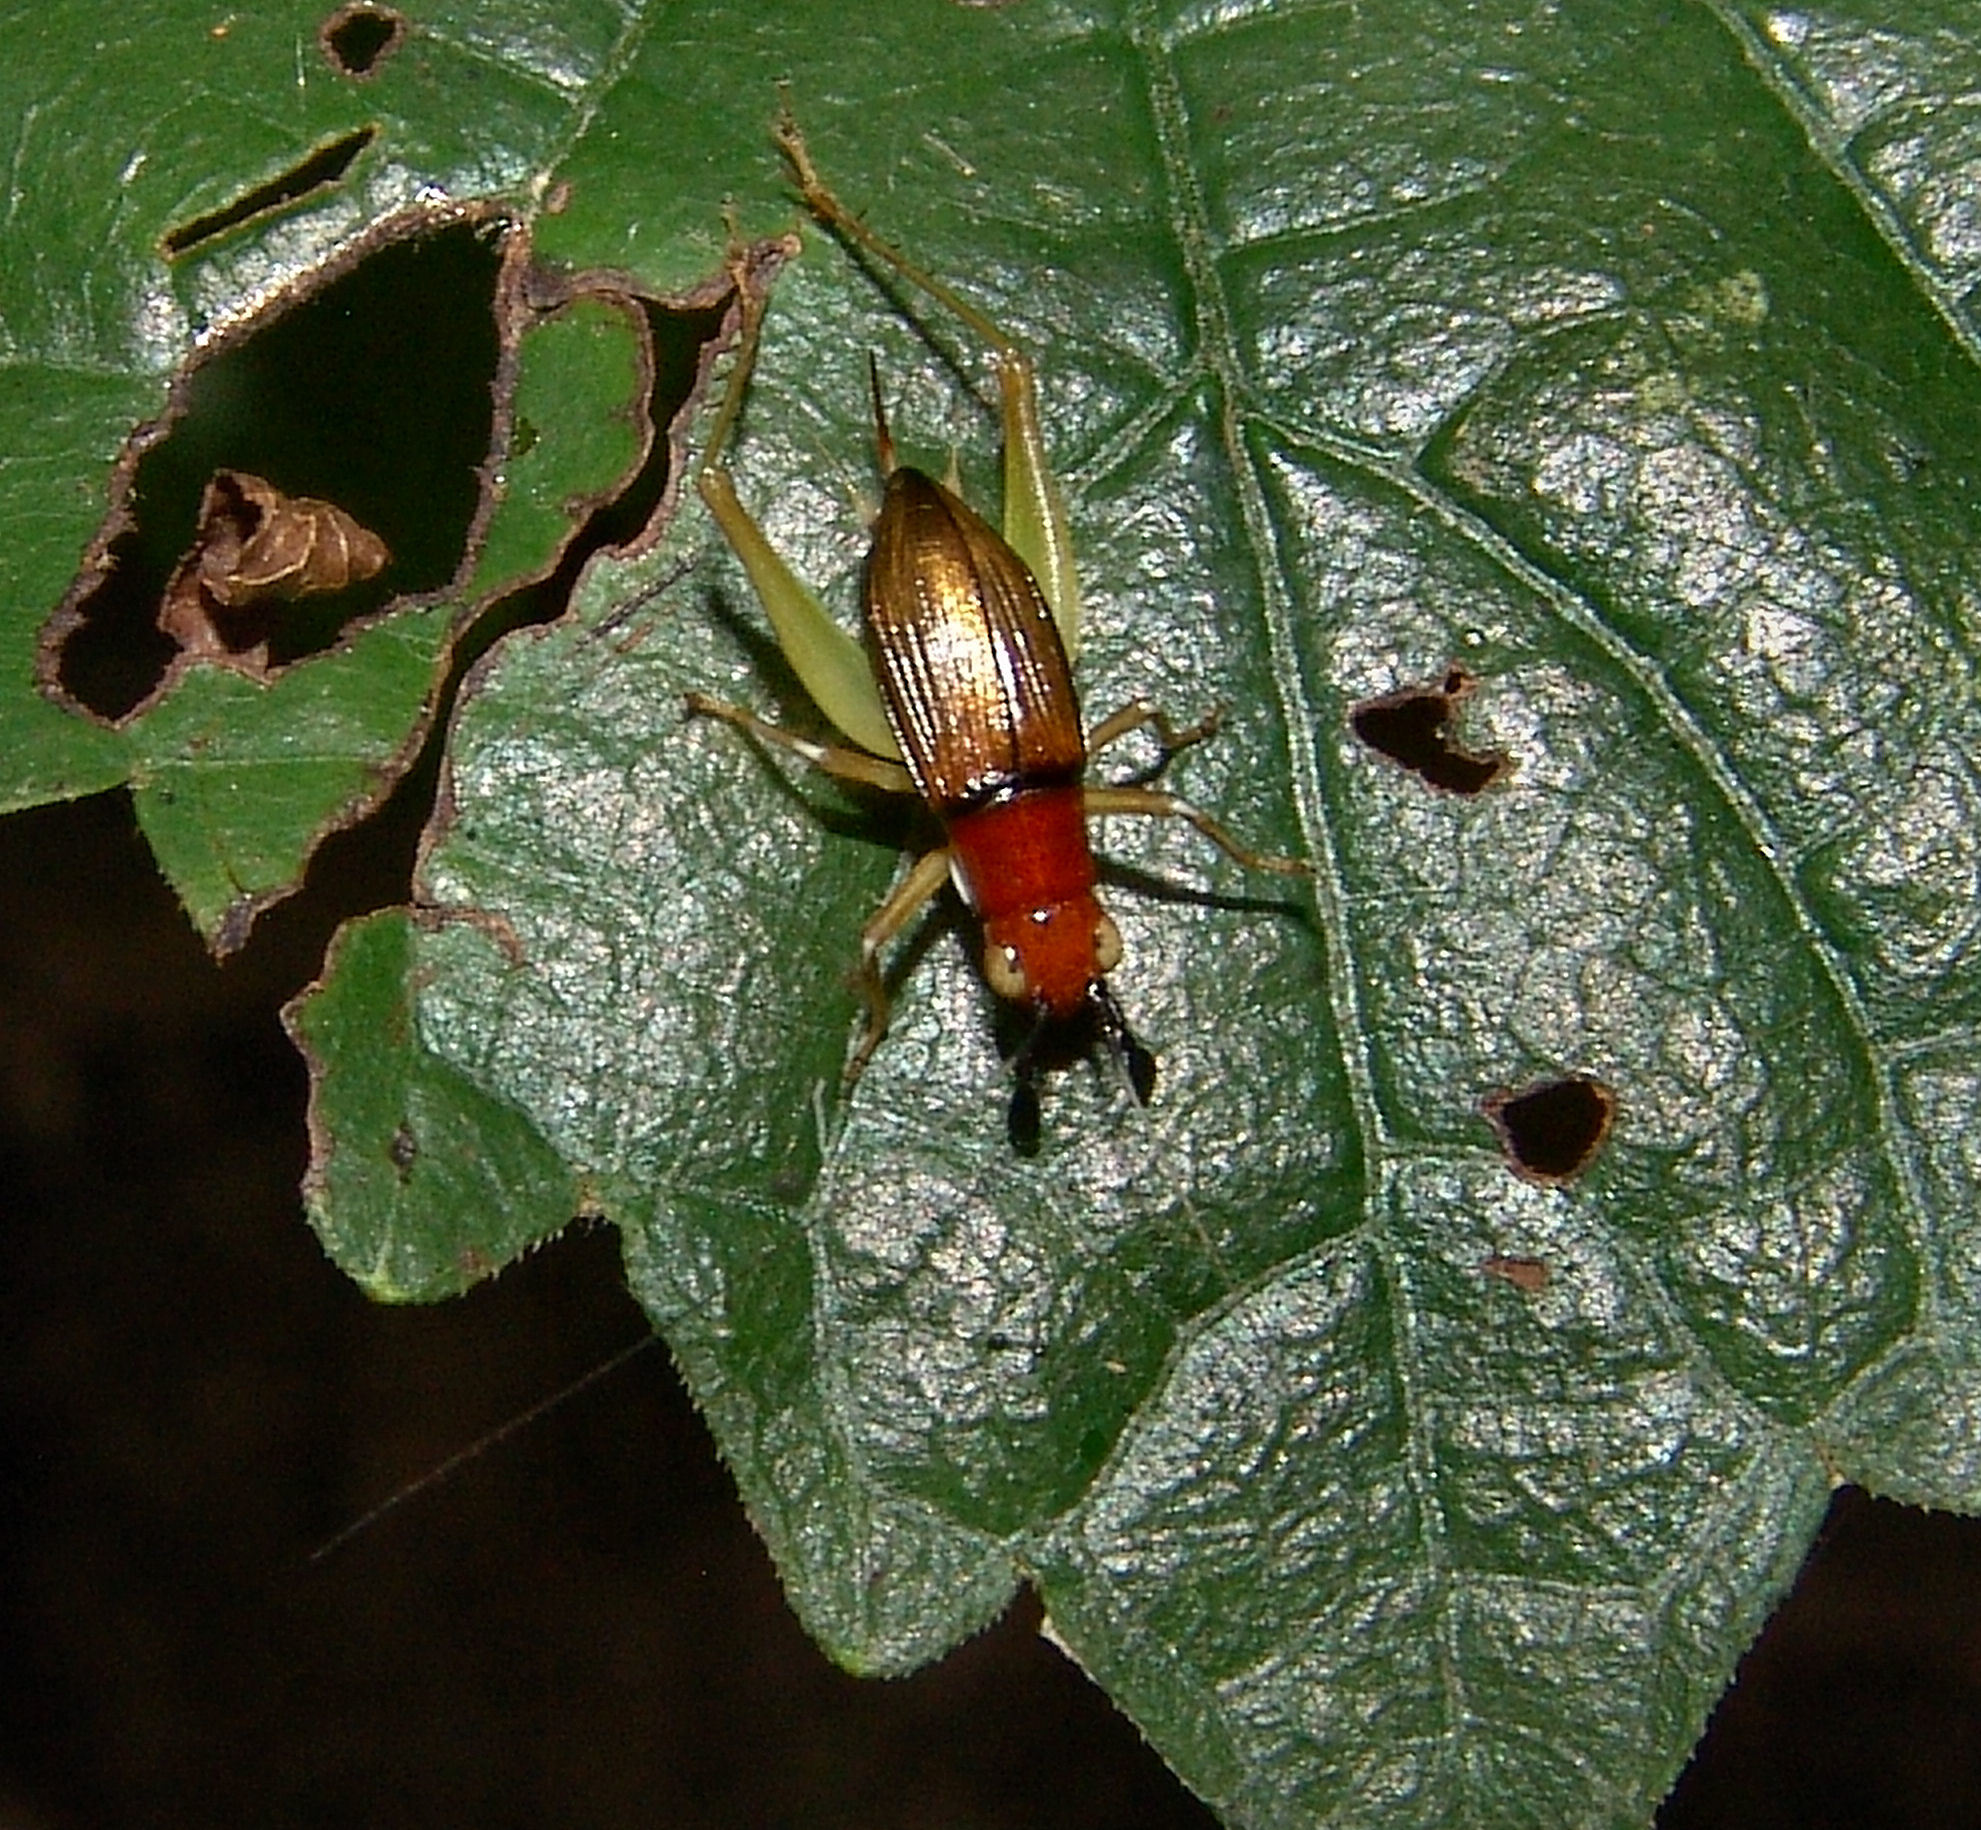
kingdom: Animalia
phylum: Arthropoda
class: Insecta
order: Orthoptera
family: Trigonidiidae
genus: Phyllopalpus
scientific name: Phyllopalpus pulchellus
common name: Handsome trig
